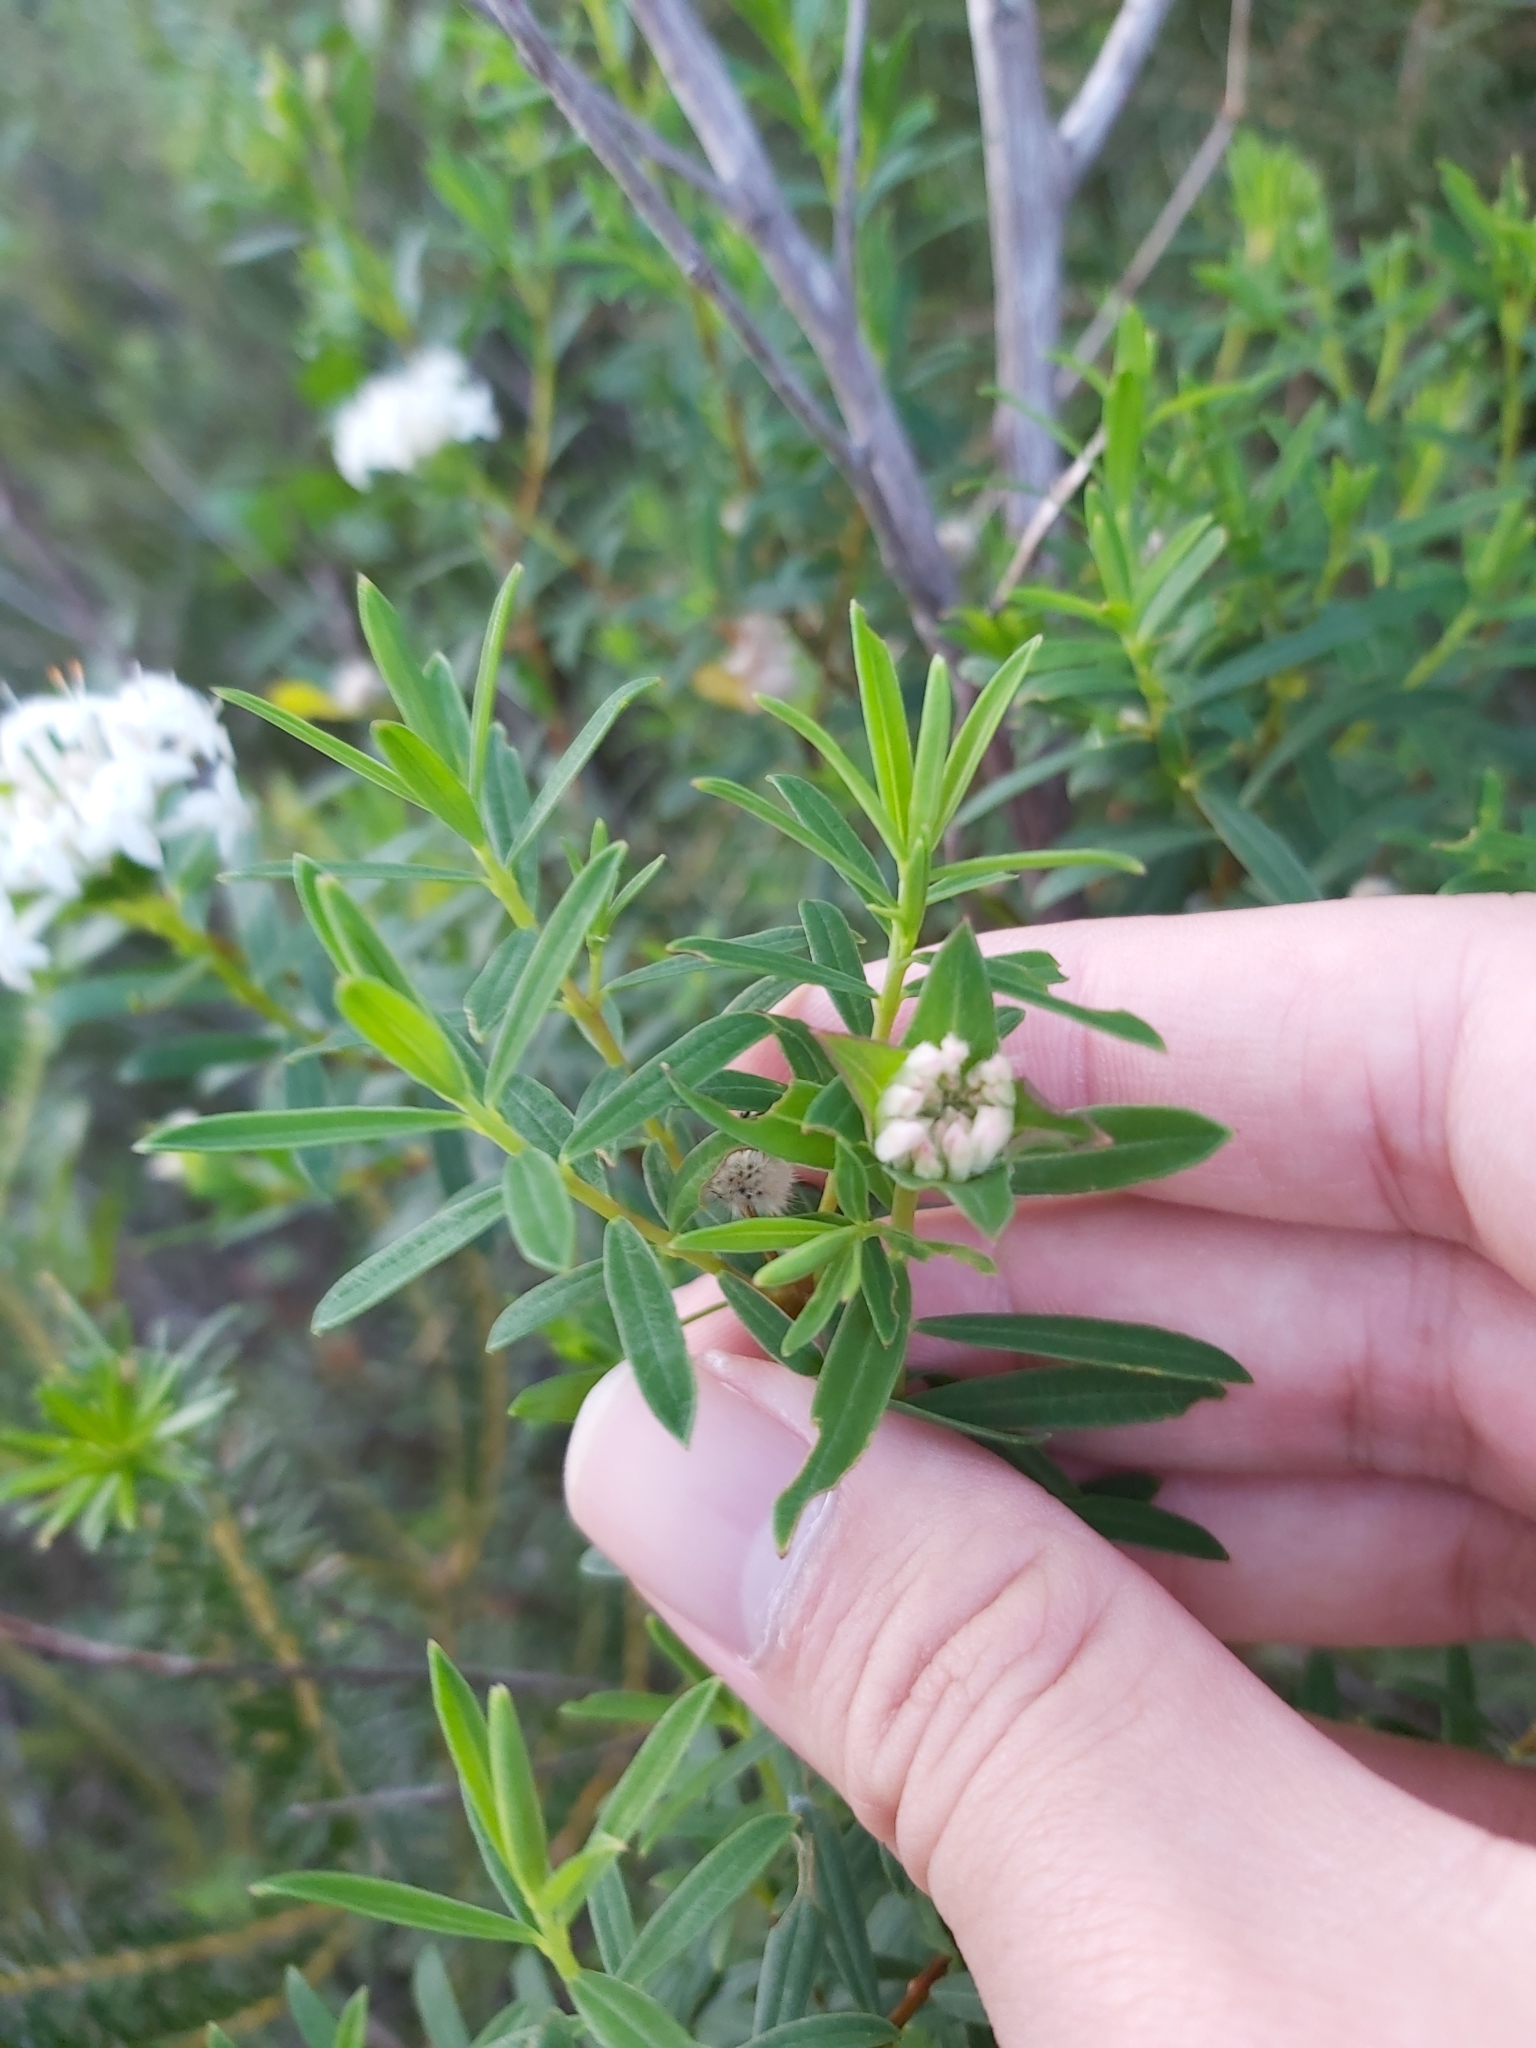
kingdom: Plantae
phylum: Tracheophyta
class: Magnoliopsida
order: Malvales
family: Thymelaeaceae
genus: Pimelea
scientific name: Pimelea linifolia
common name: Queen-of-the-bush
